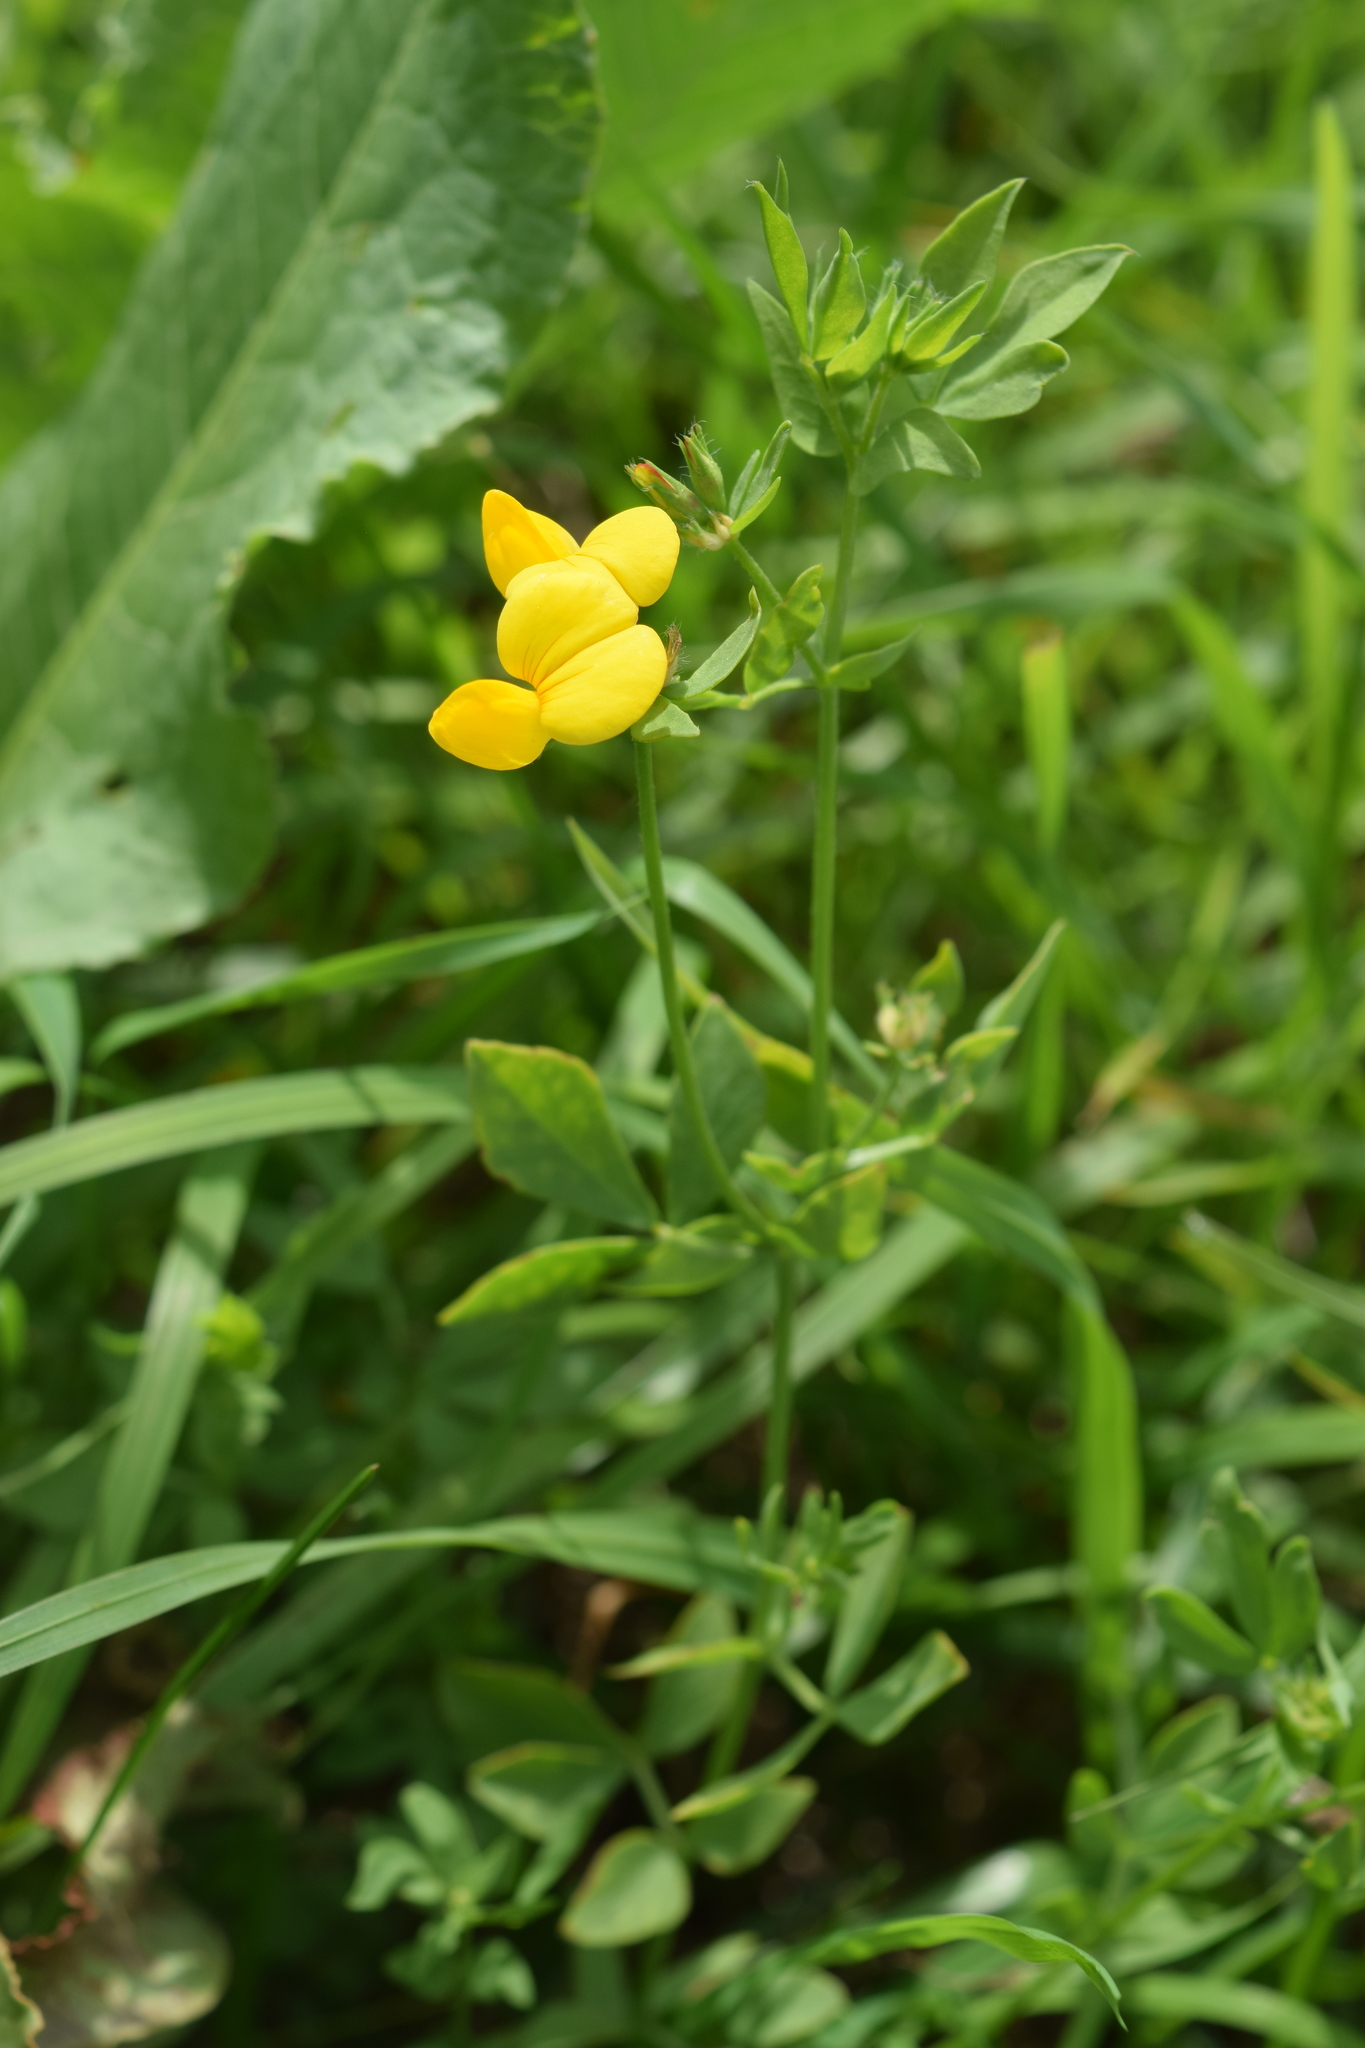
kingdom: Plantae
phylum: Tracheophyta
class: Magnoliopsida
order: Fabales
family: Fabaceae
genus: Lotus
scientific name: Lotus corniculatus
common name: Common bird's-foot-trefoil
